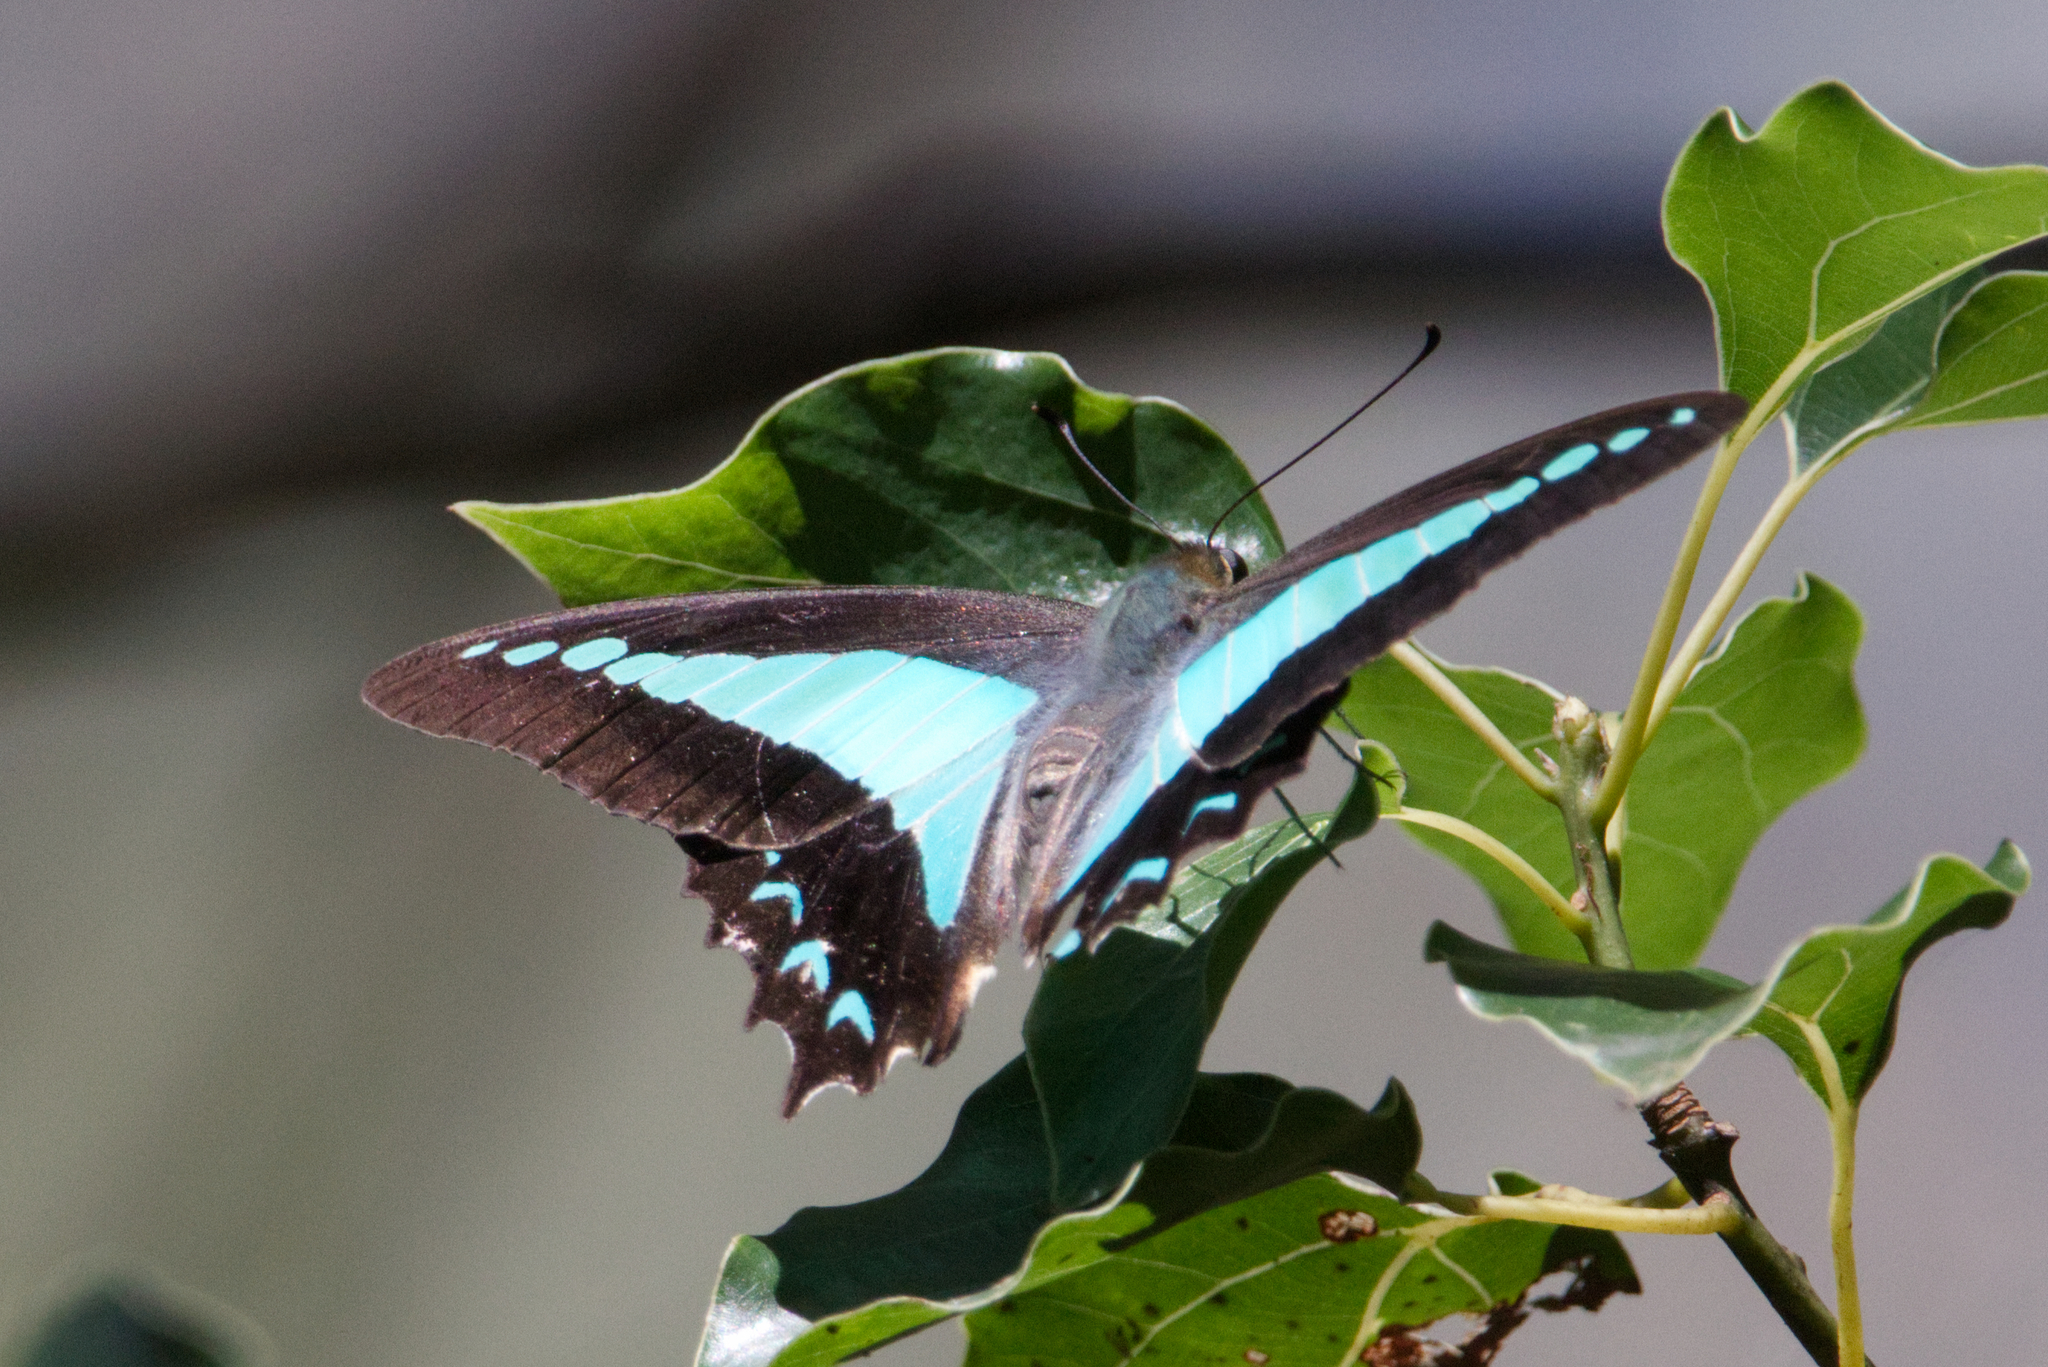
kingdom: Animalia
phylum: Arthropoda
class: Insecta
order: Lepidoptera
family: Papilionidae
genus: Graphium
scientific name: Graphium
